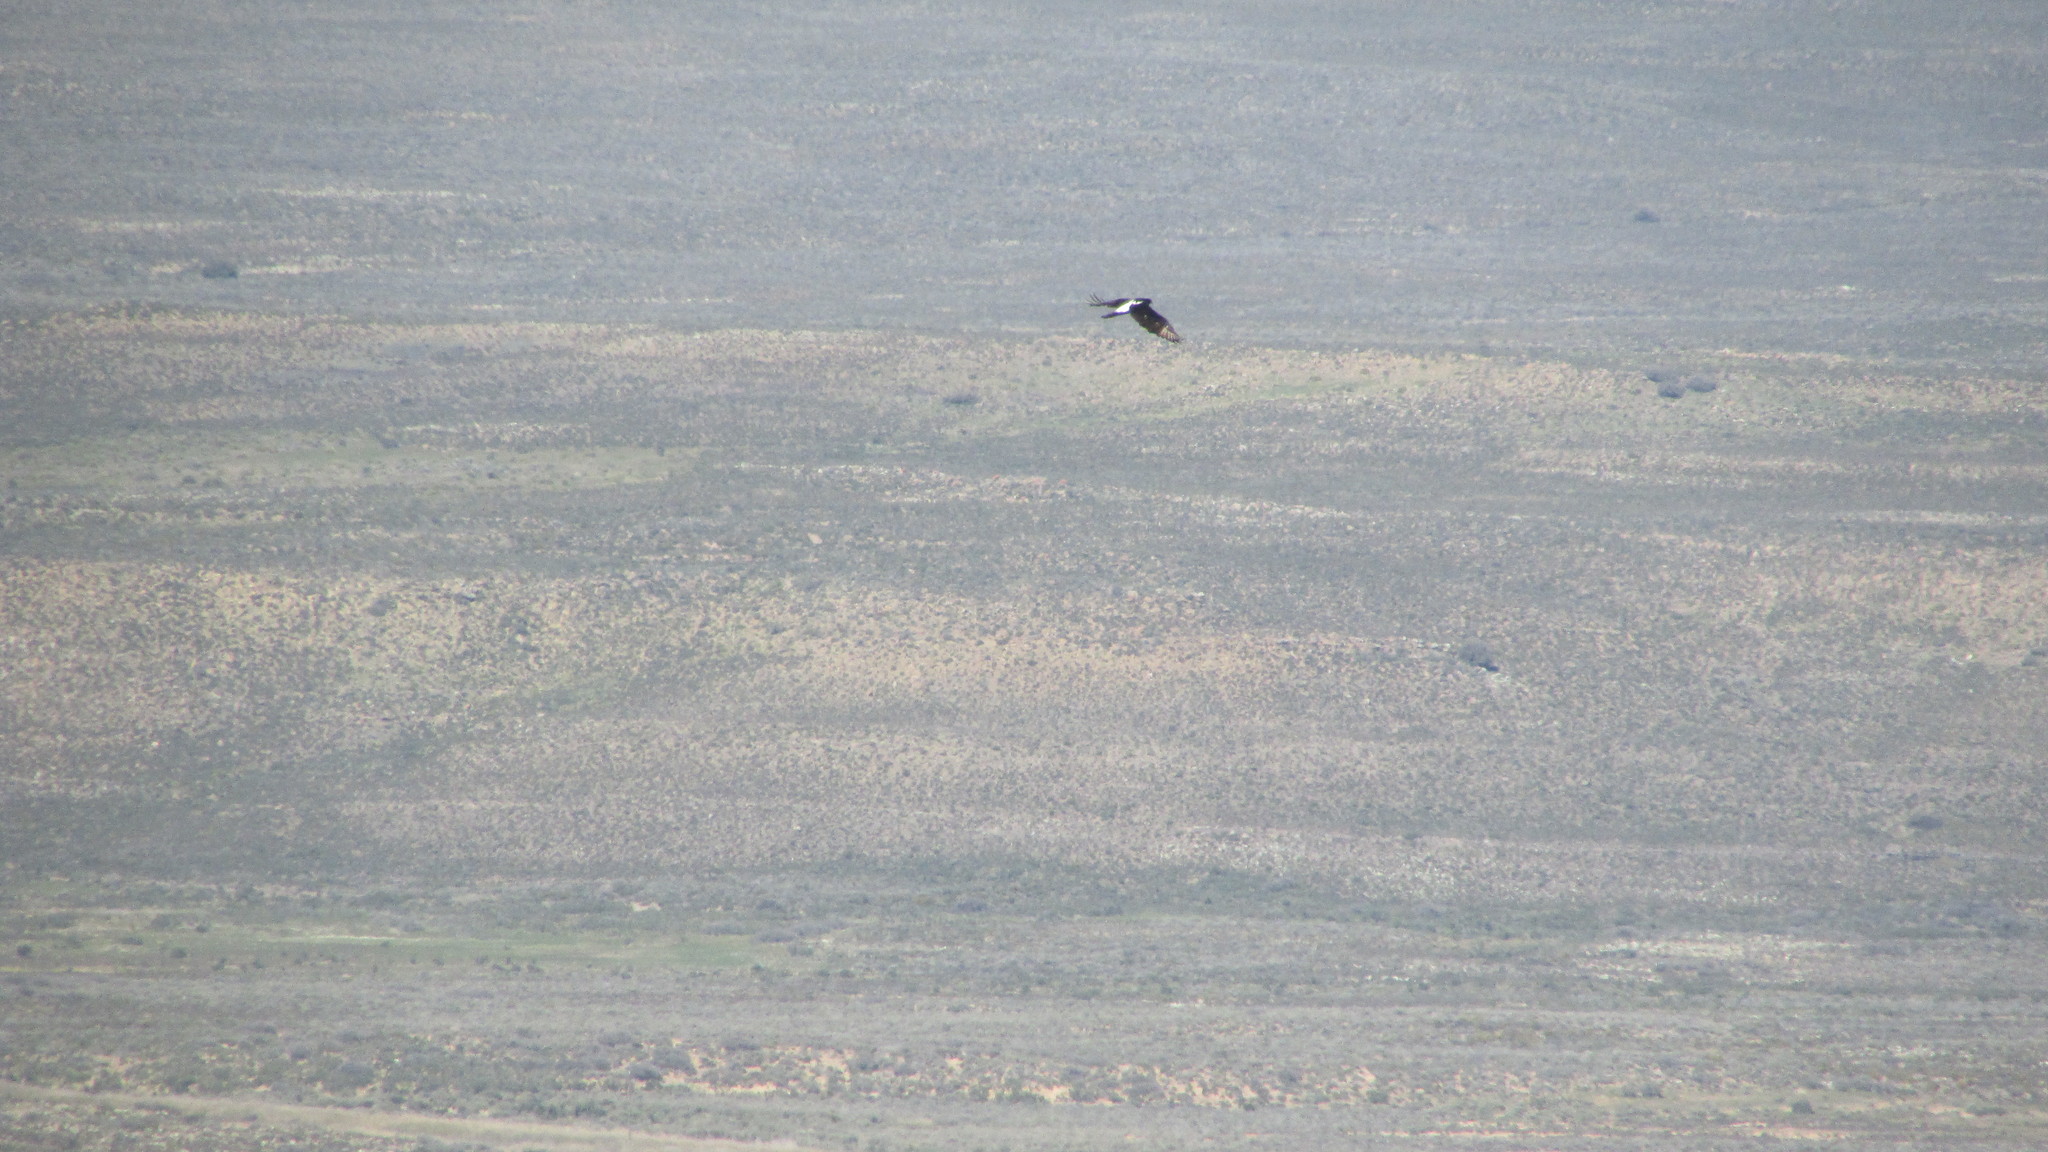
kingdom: Animalia
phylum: Chordata
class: Aves
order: Accipitriformes
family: Accipitridae
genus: Aquila
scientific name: Aquila verreauxii
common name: Verreaux's eagle
